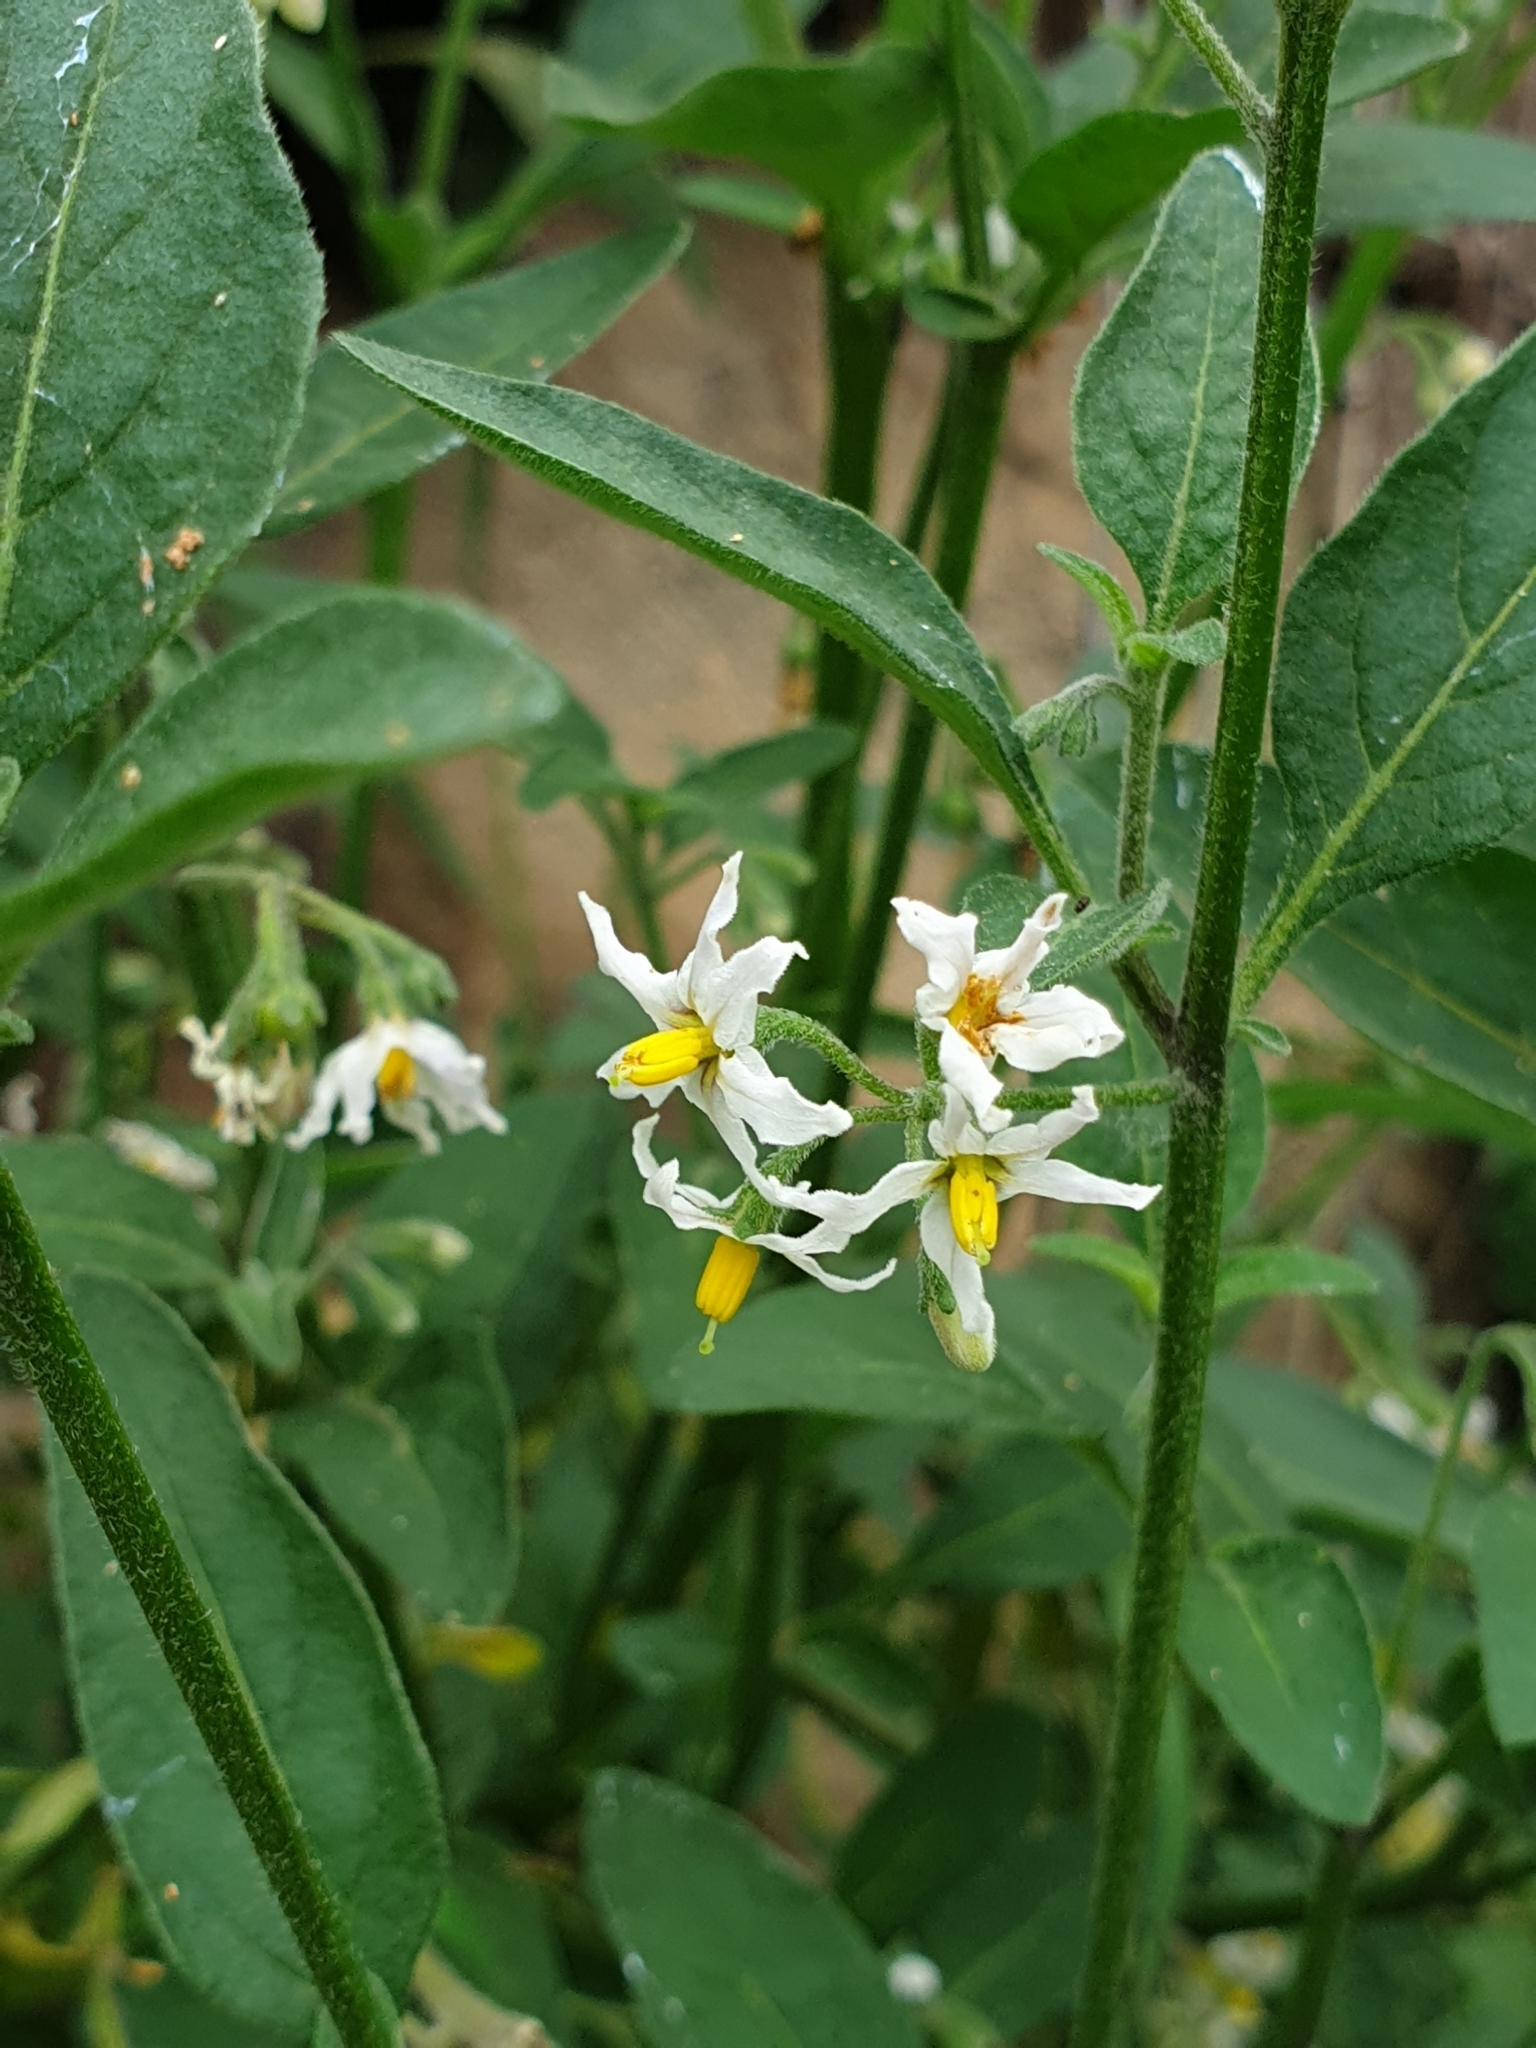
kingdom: Plantae
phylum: Tracheophyta
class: Magnoliopsida
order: Solanales
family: Solanaceae
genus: Solanum
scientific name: Solanum chenopodioides
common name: Tall nightshade
